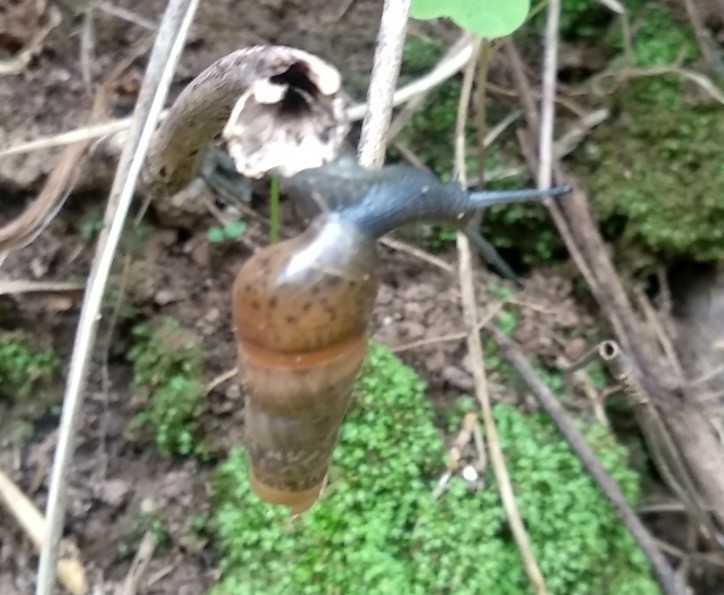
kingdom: Animalia
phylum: Mollusca
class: Gastropoda
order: Stylommatophora
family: Achatinidae
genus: Rumina
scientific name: Rumina decollata
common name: Decollate snail
